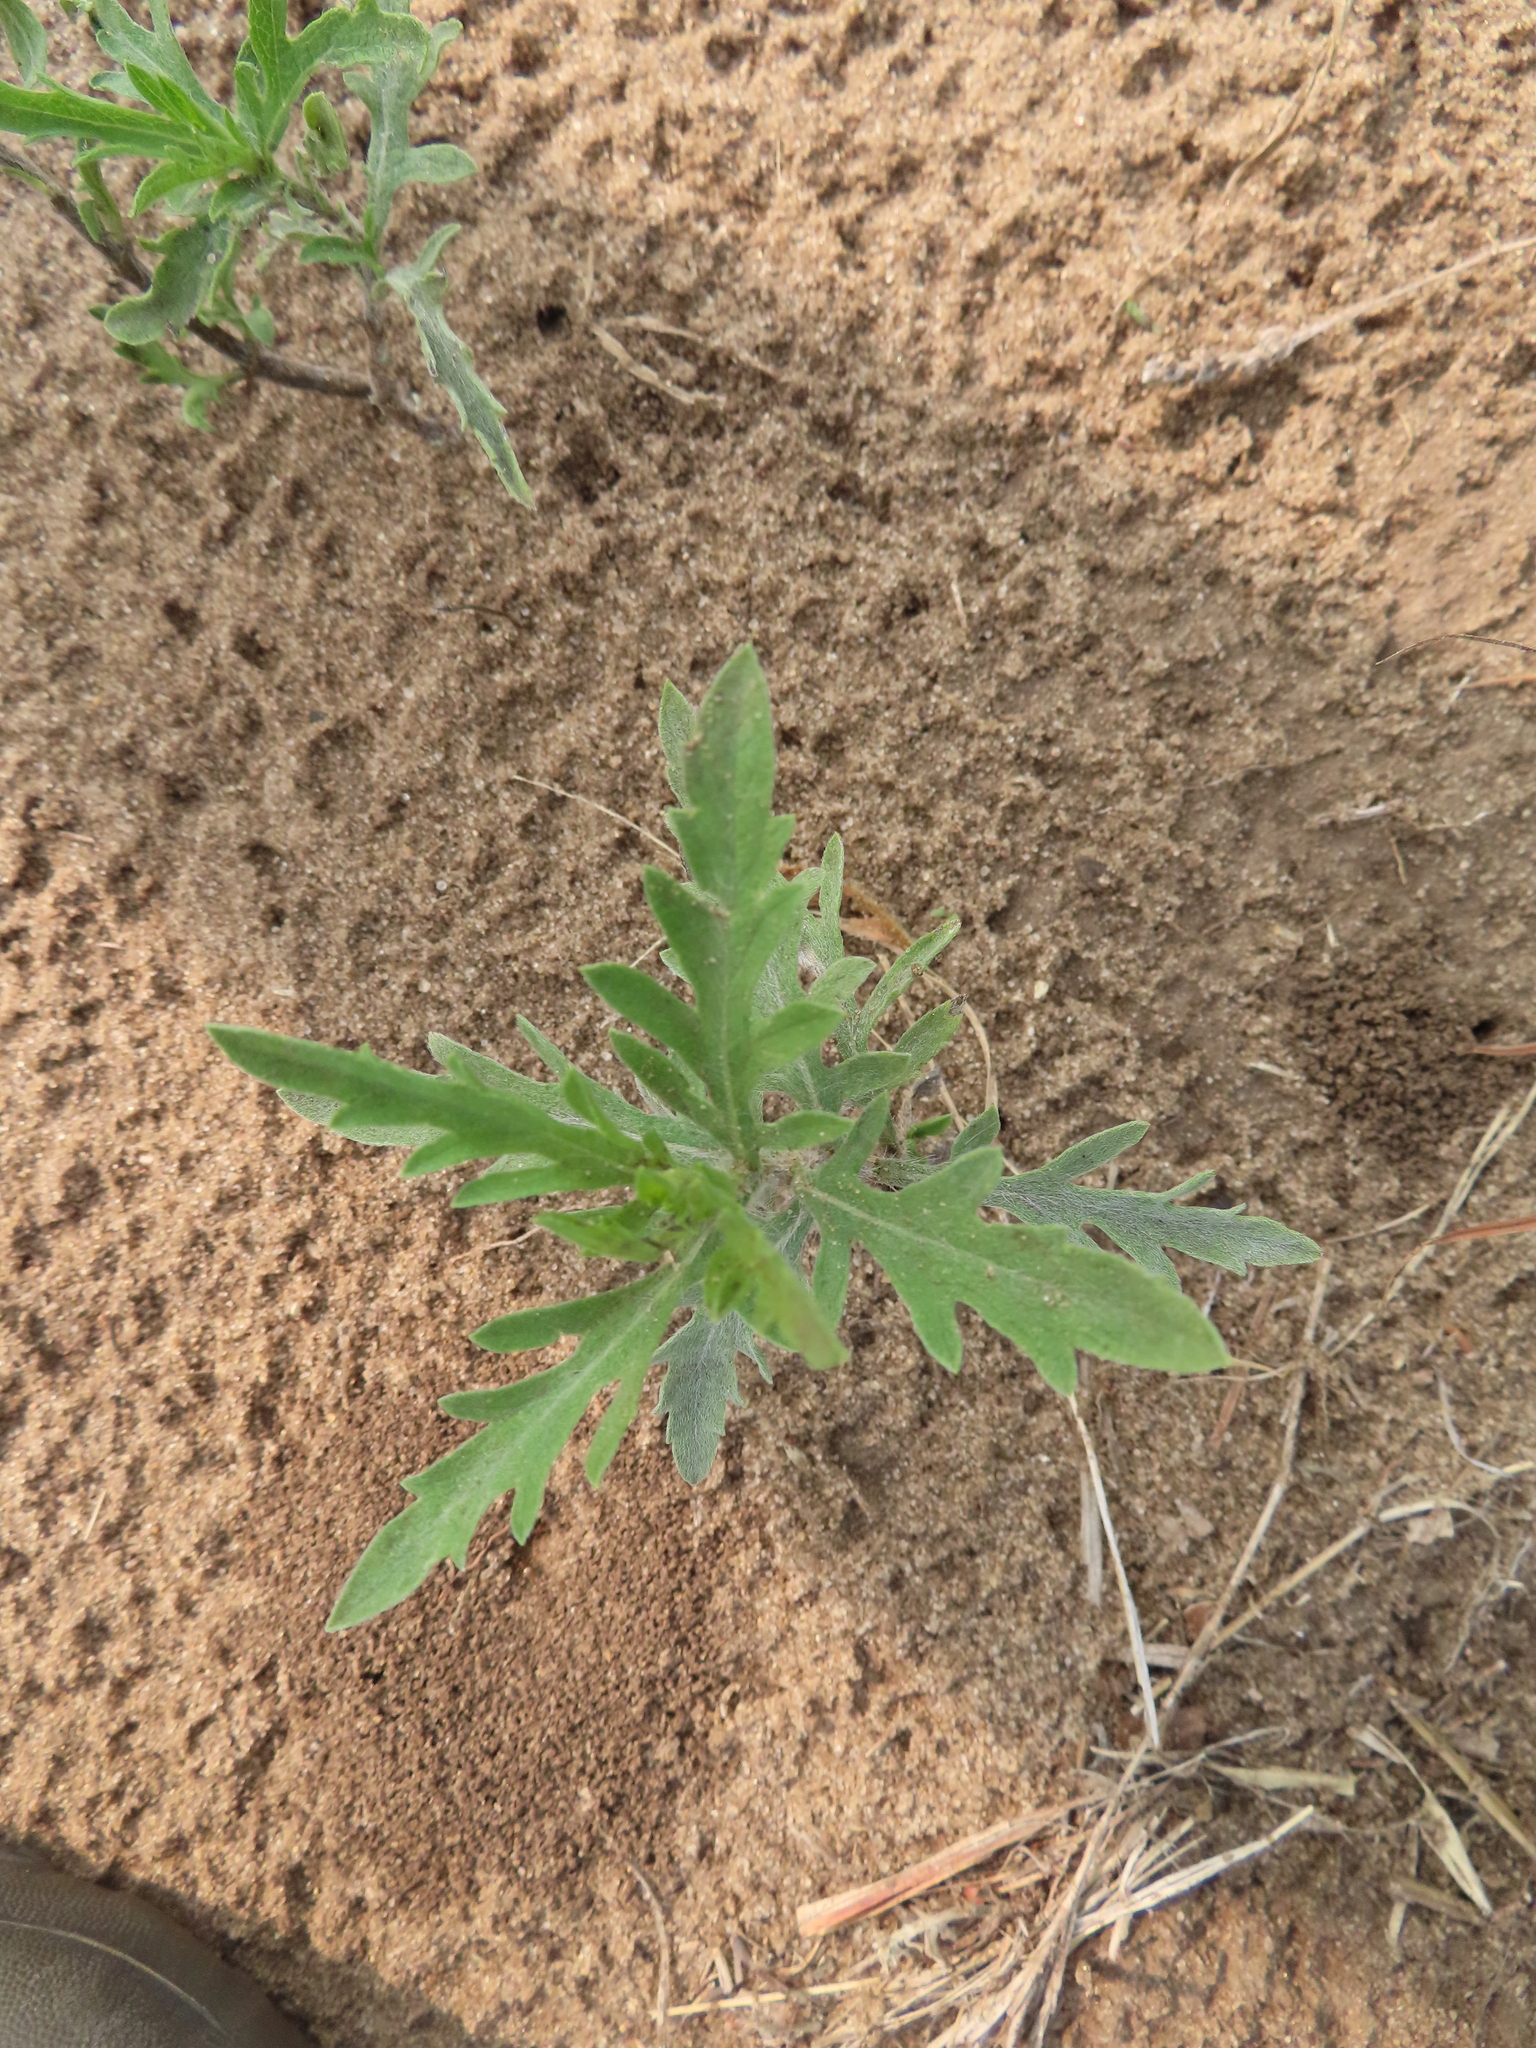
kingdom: Plantae
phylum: Tracheophyta
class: Magnoliopsida
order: Asterales
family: Asteraceae
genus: Ambrosia
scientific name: Ambrosia psilostachya
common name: Perennial ragweed
